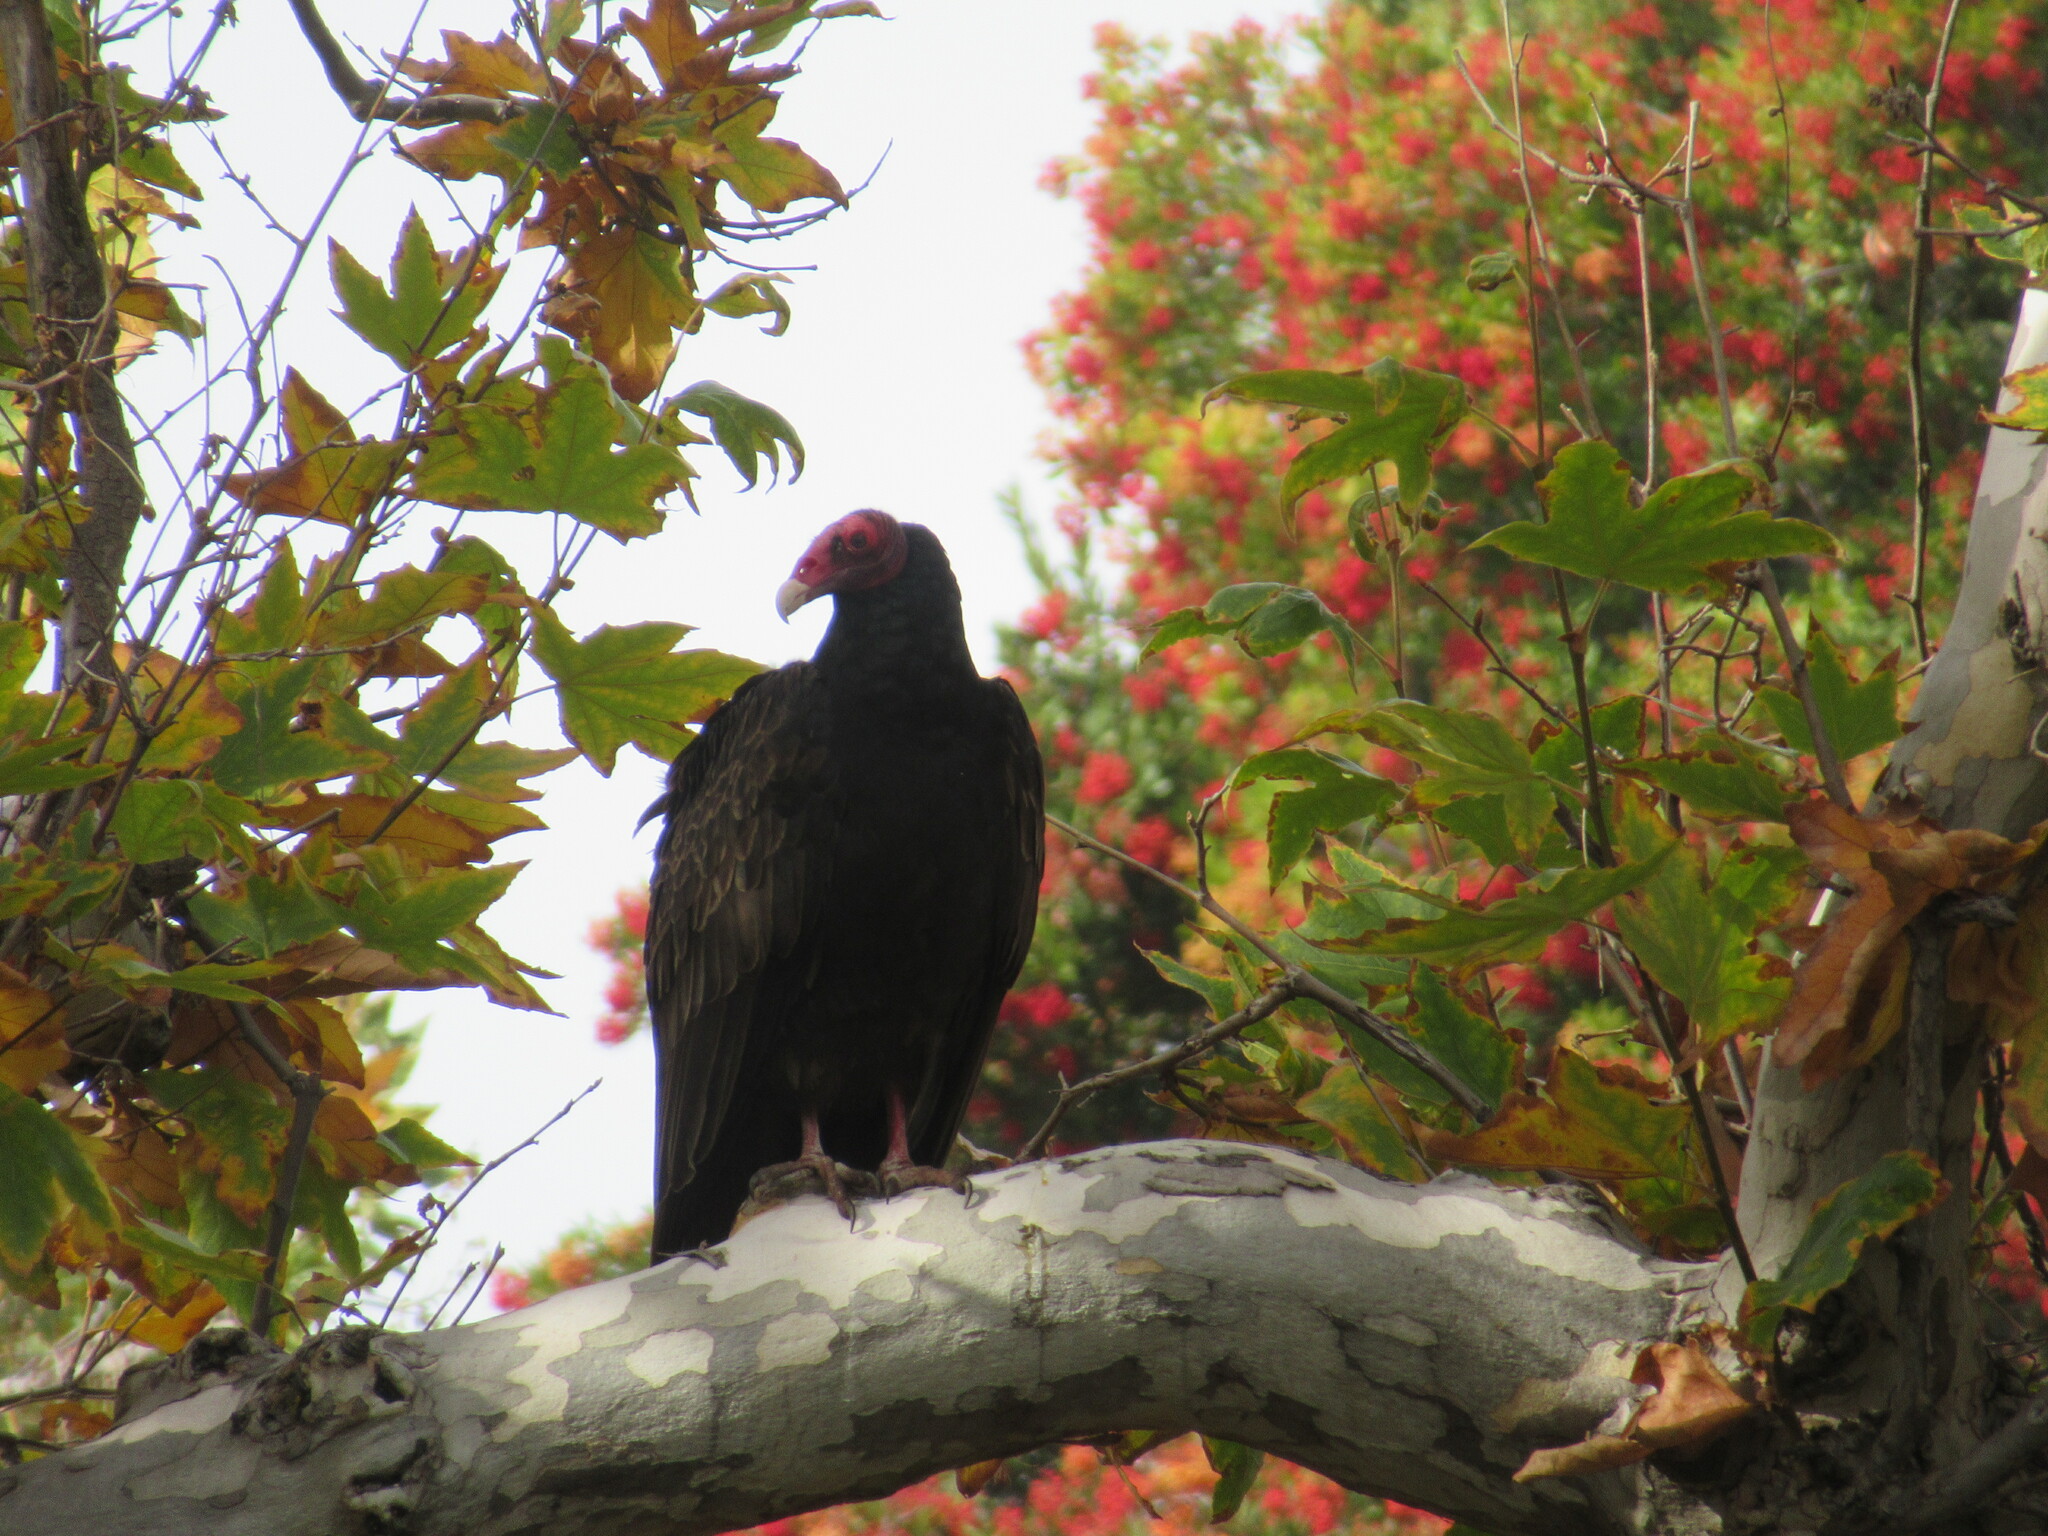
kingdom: Animalia
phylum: Chordata
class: Aves
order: Accipitriformes
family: Cathartidae
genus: Cathartes
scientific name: Cathartes aura
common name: Turkey vulture
